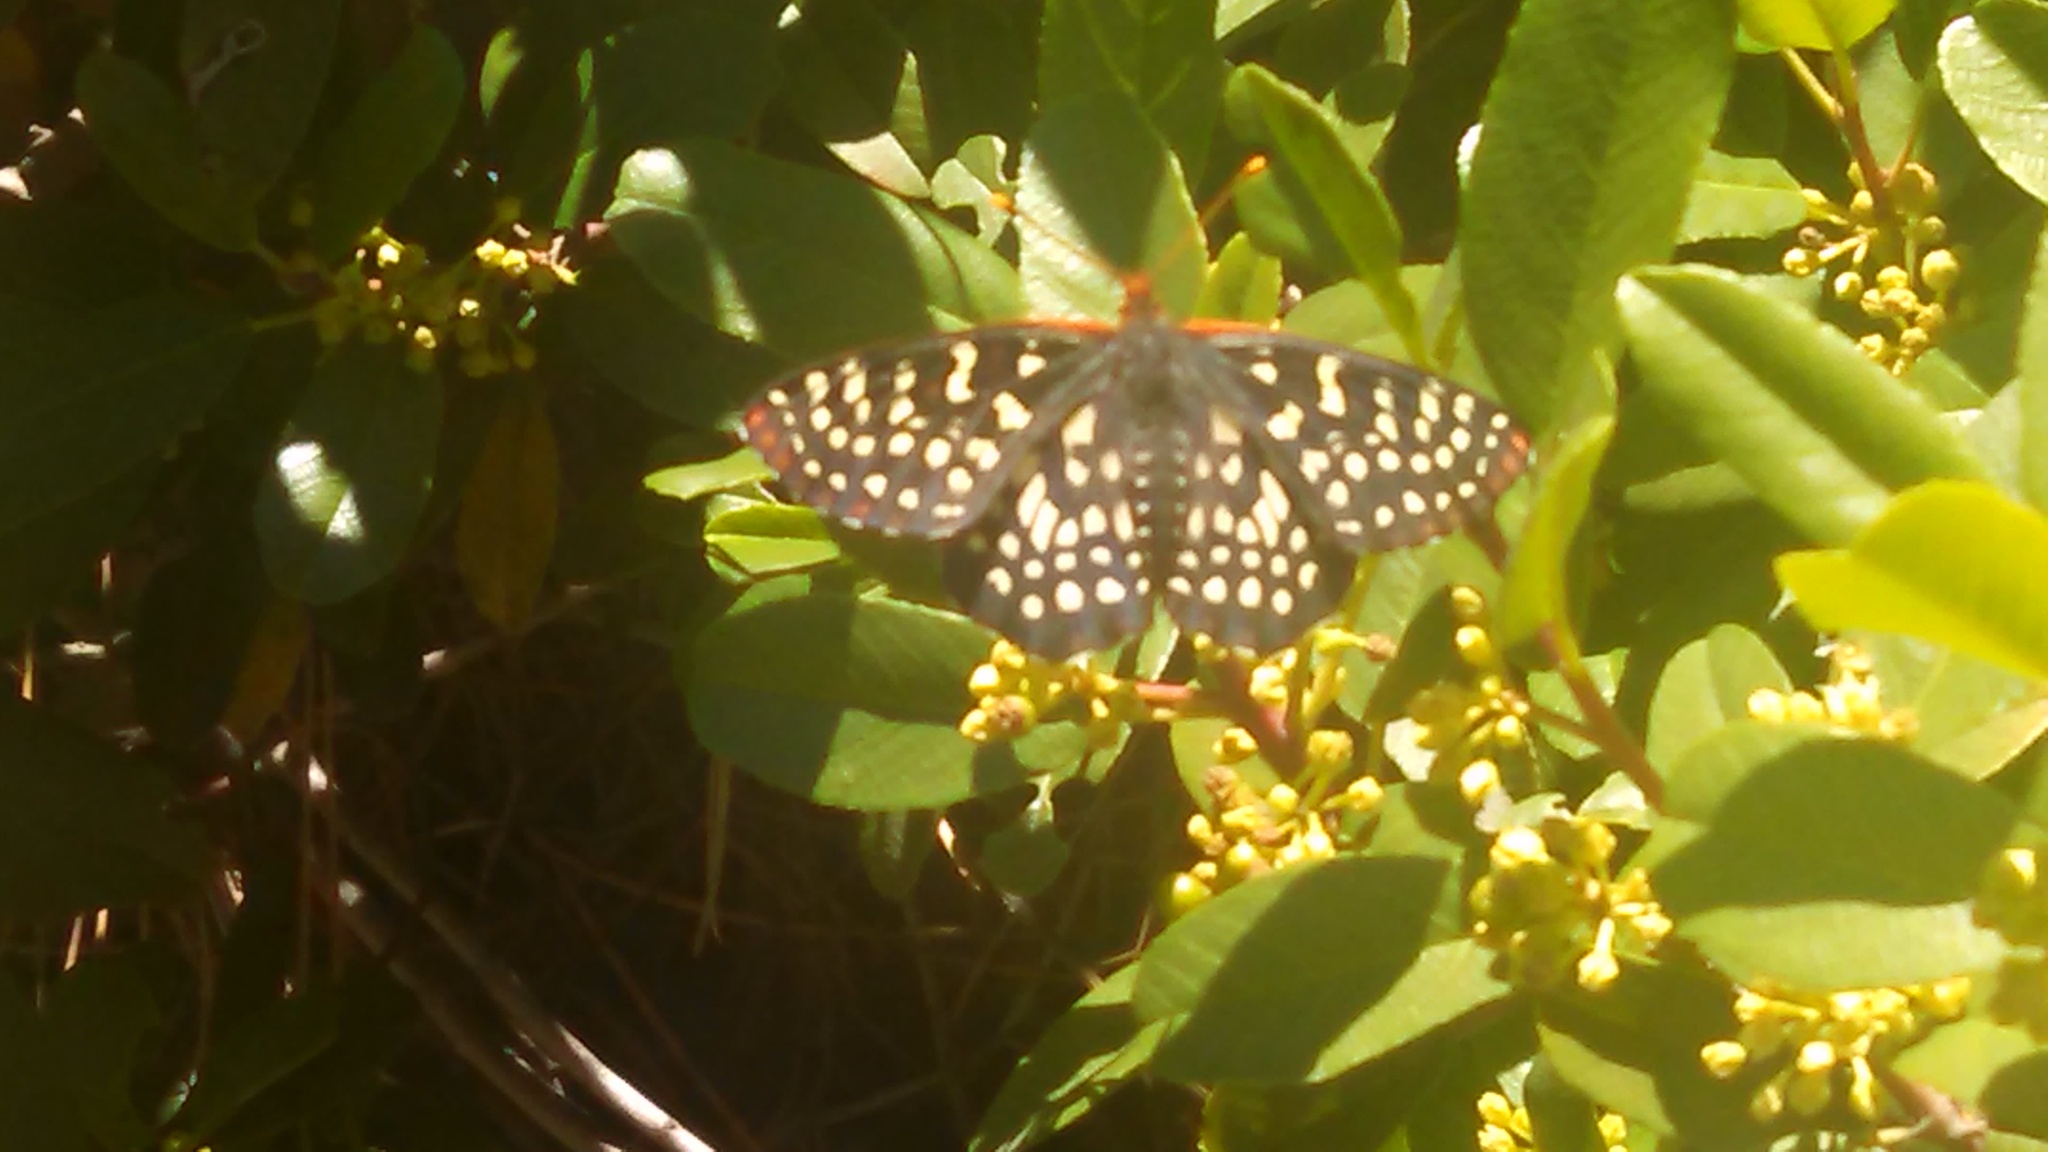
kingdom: Animalia
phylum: Arthropoda
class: Insecta
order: Lepidoptera
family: Nymphalidae
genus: Occidryas
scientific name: Occidryas chalcedona
